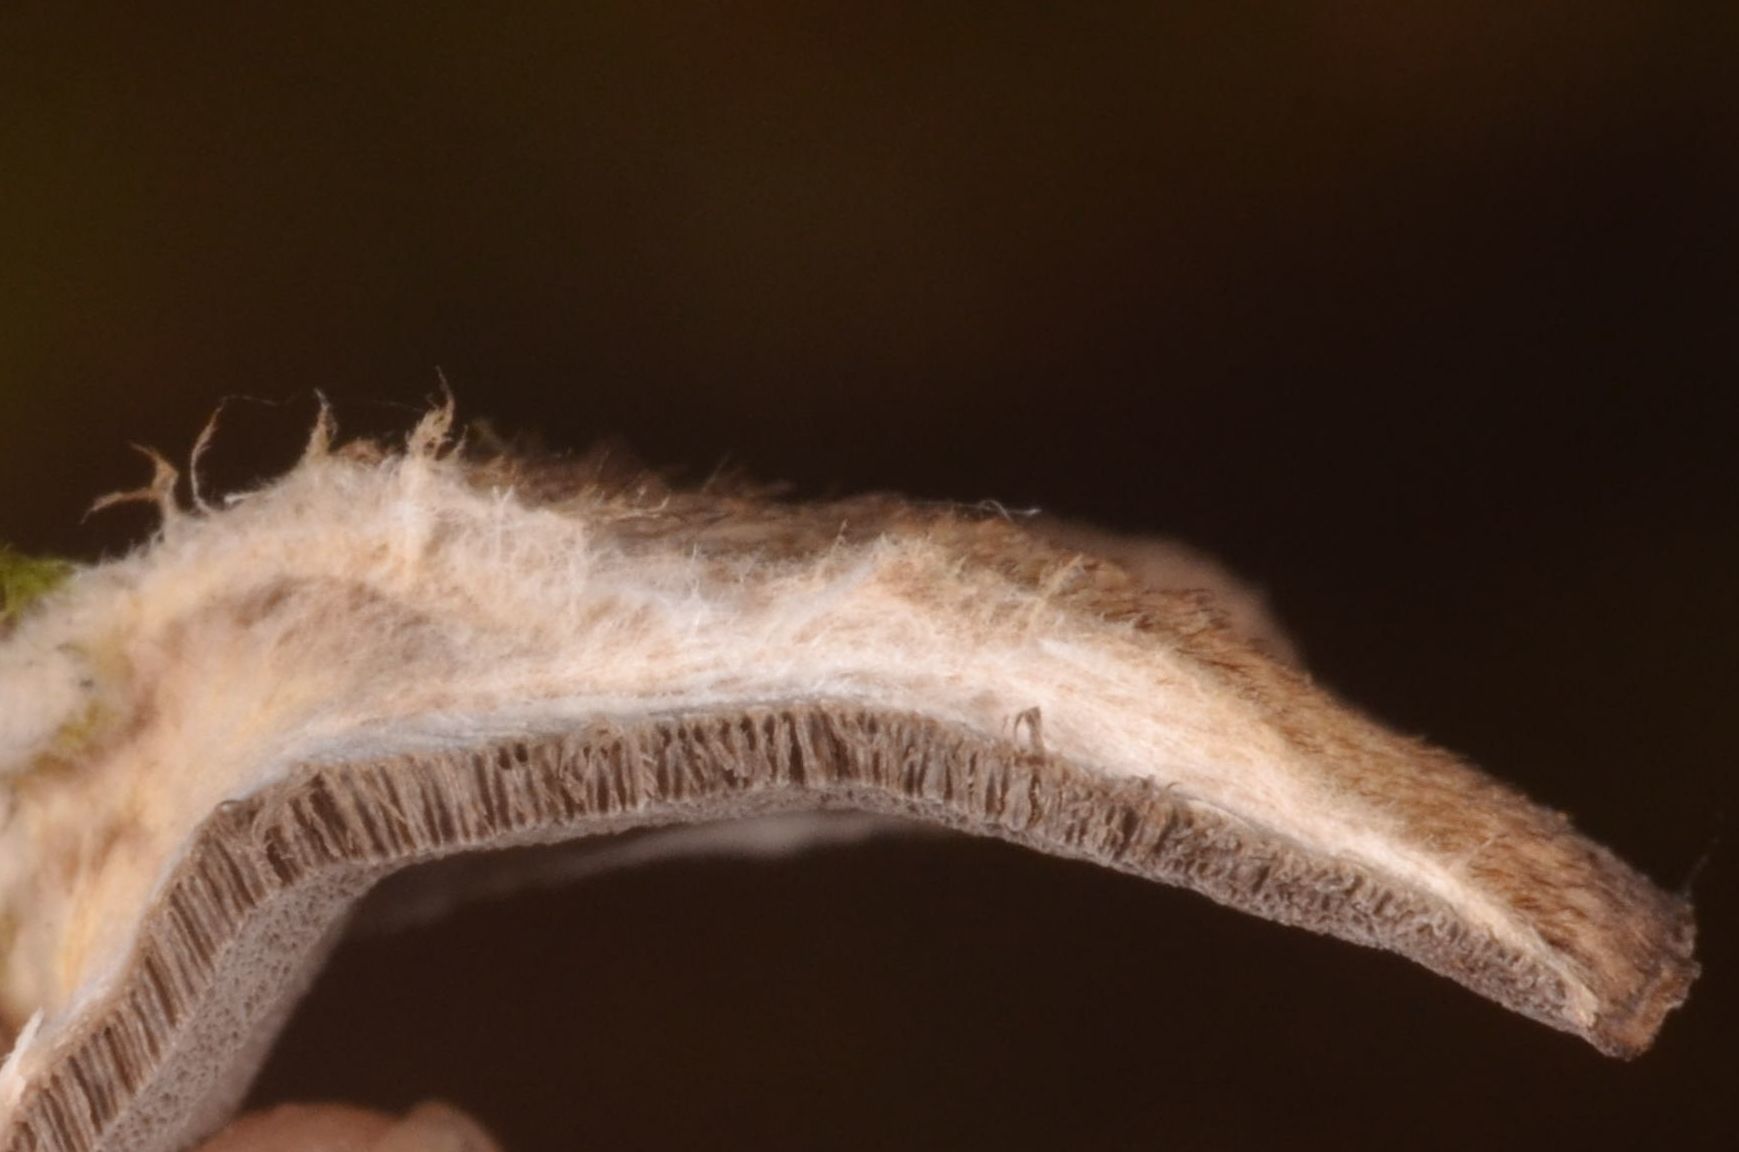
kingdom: Fungi
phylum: Basidiomycota
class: Agaricomycetes
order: Polyporales
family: Phanerochaetaceae
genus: Bjerkandera
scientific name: Bjerkandera adusta
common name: Smoky bracket
